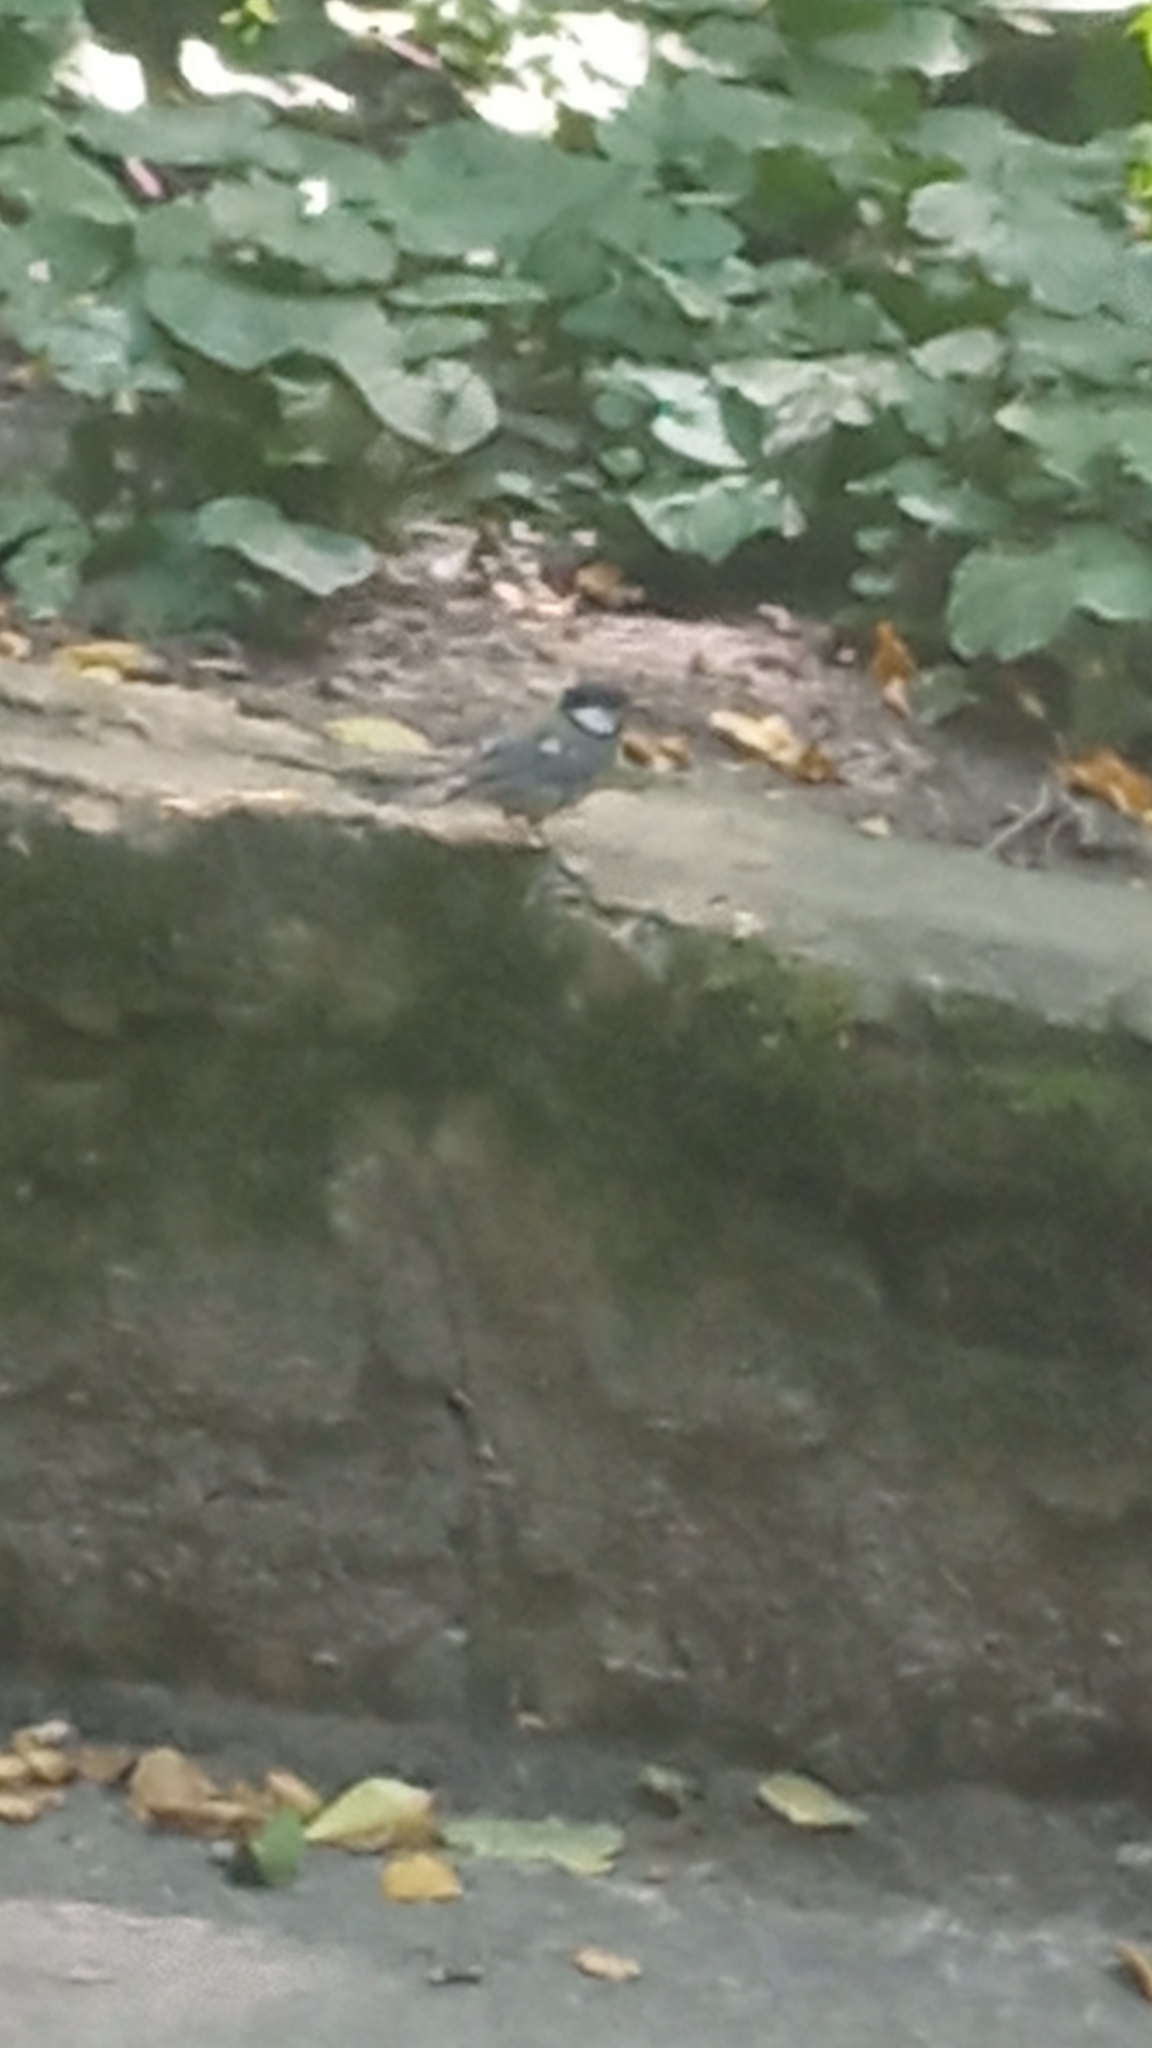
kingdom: Animalia
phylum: Chordata
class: Aves
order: Passeriformes
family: Paridae
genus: Parus
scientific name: Parus major
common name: Great tit
